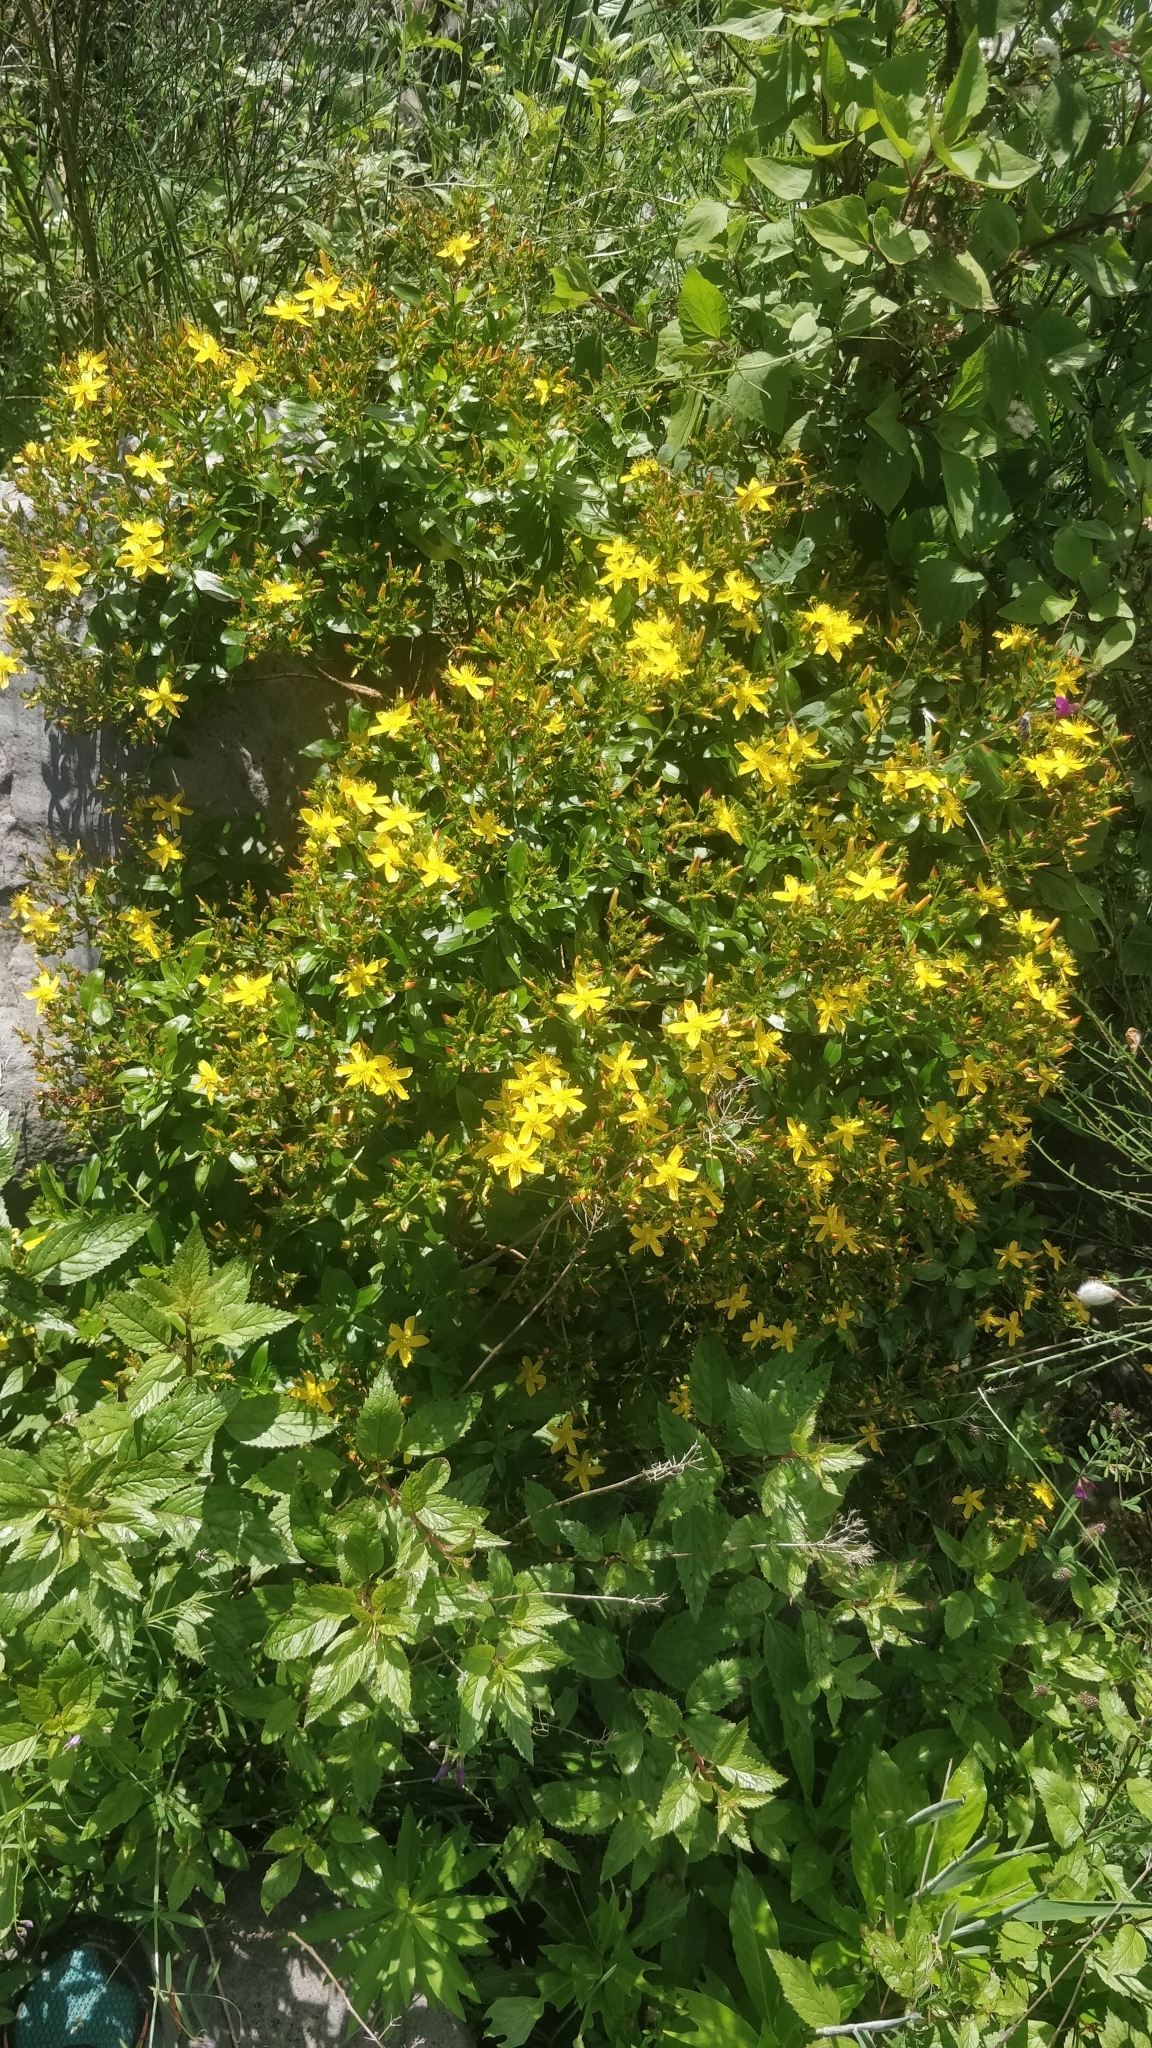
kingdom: Plantae
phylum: Tracheophyta
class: Magnoliopsida
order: Malpighiales
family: Hypericaceae
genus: Hypericum
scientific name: Hypericum glandulosum
